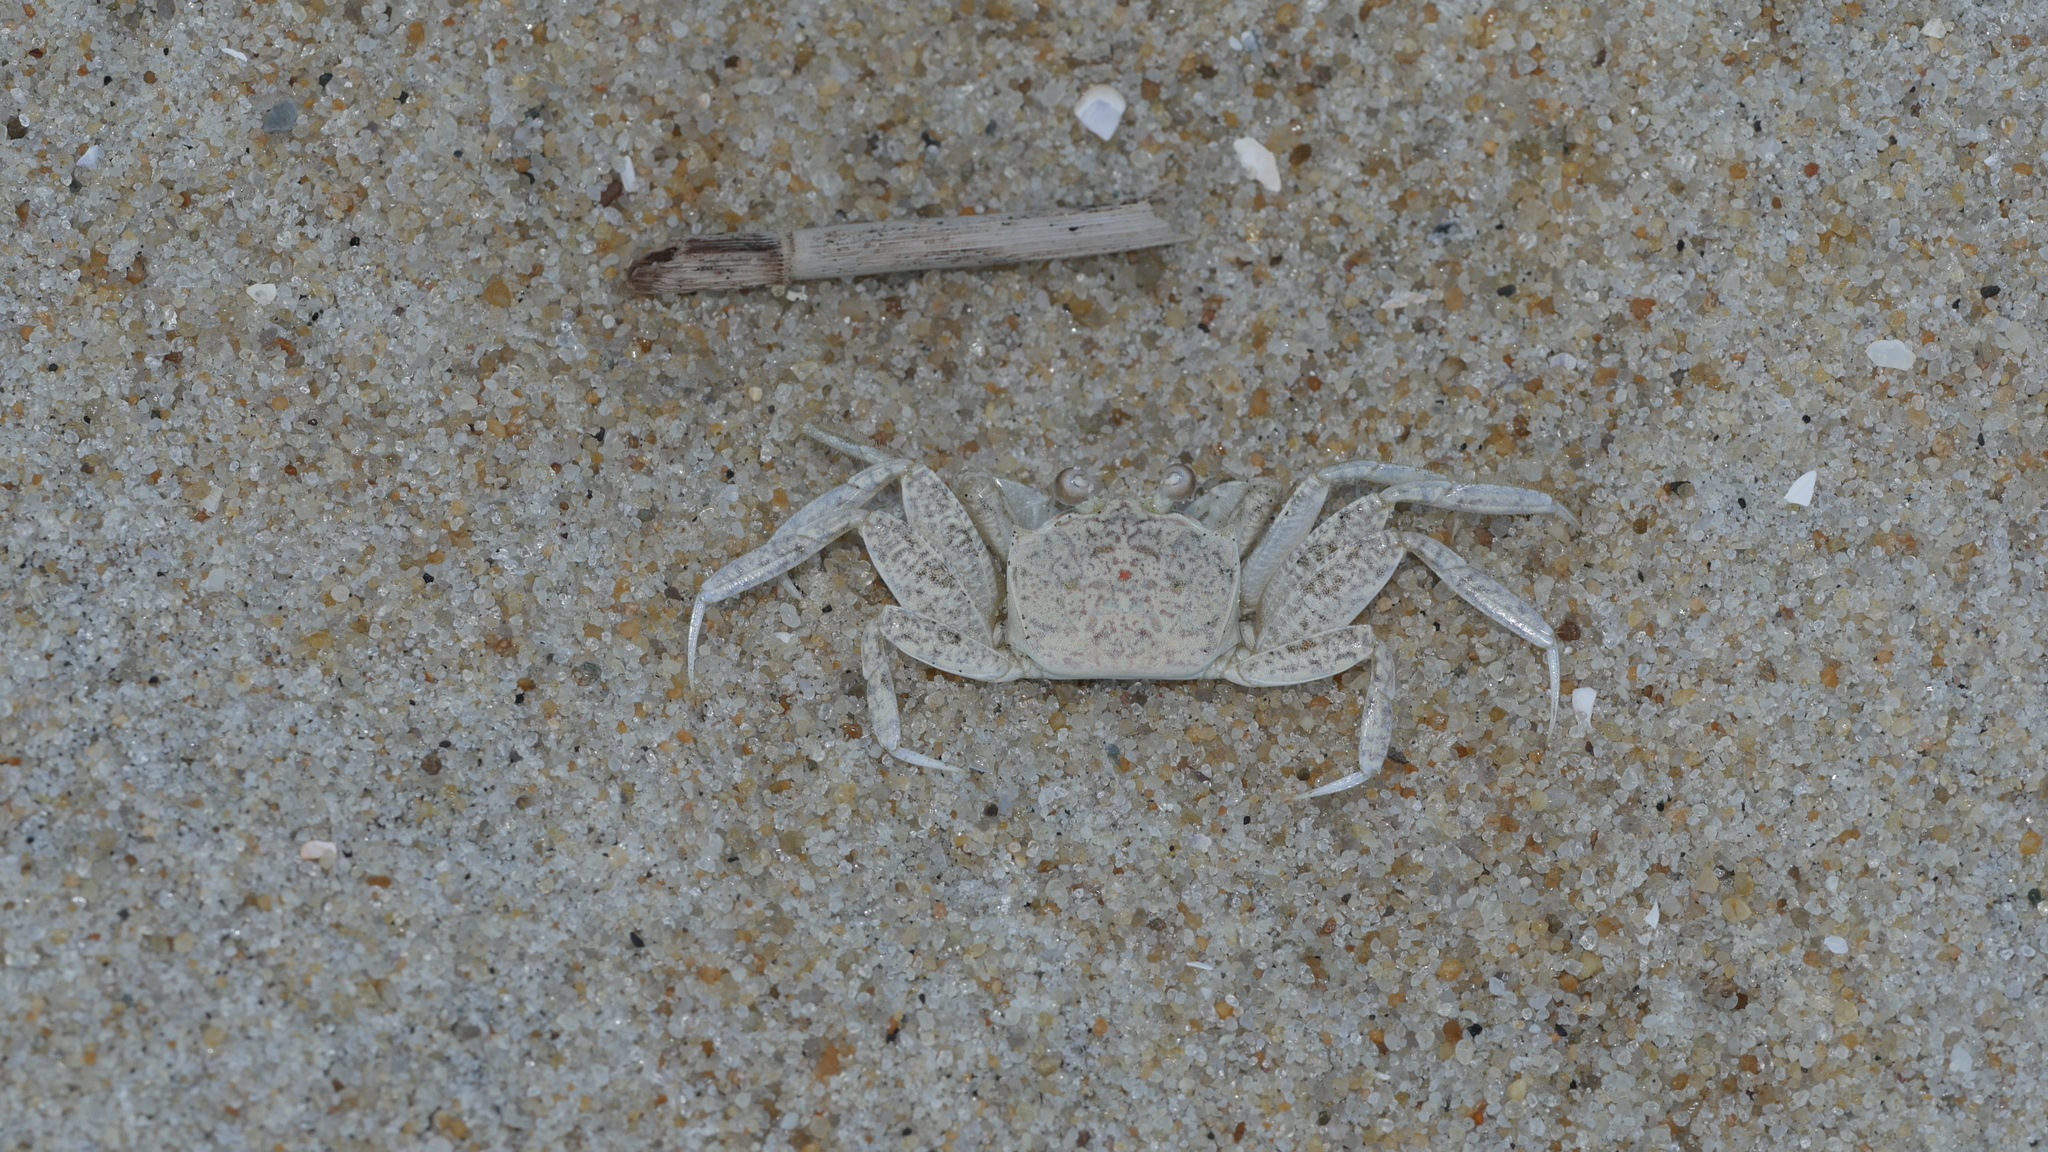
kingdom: Animalia
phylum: Arthropoda
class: Malacostraca
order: Decapoda
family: Ocypodidae
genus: Ocypode
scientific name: Ocypode quadrata
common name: Ghost crab
